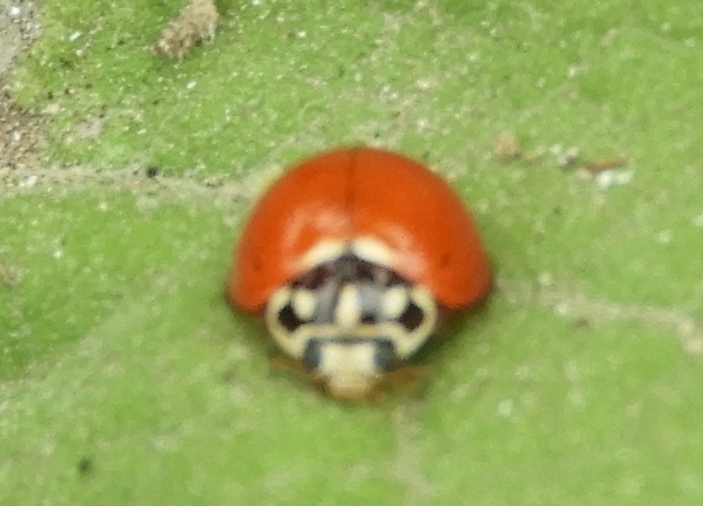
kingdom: Animalia
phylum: Arthropoda
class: Insecta
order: Coleoptera
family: Coccinellidae
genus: Cycloneda
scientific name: Cycloneda sanguinea
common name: Ladybird beetle
